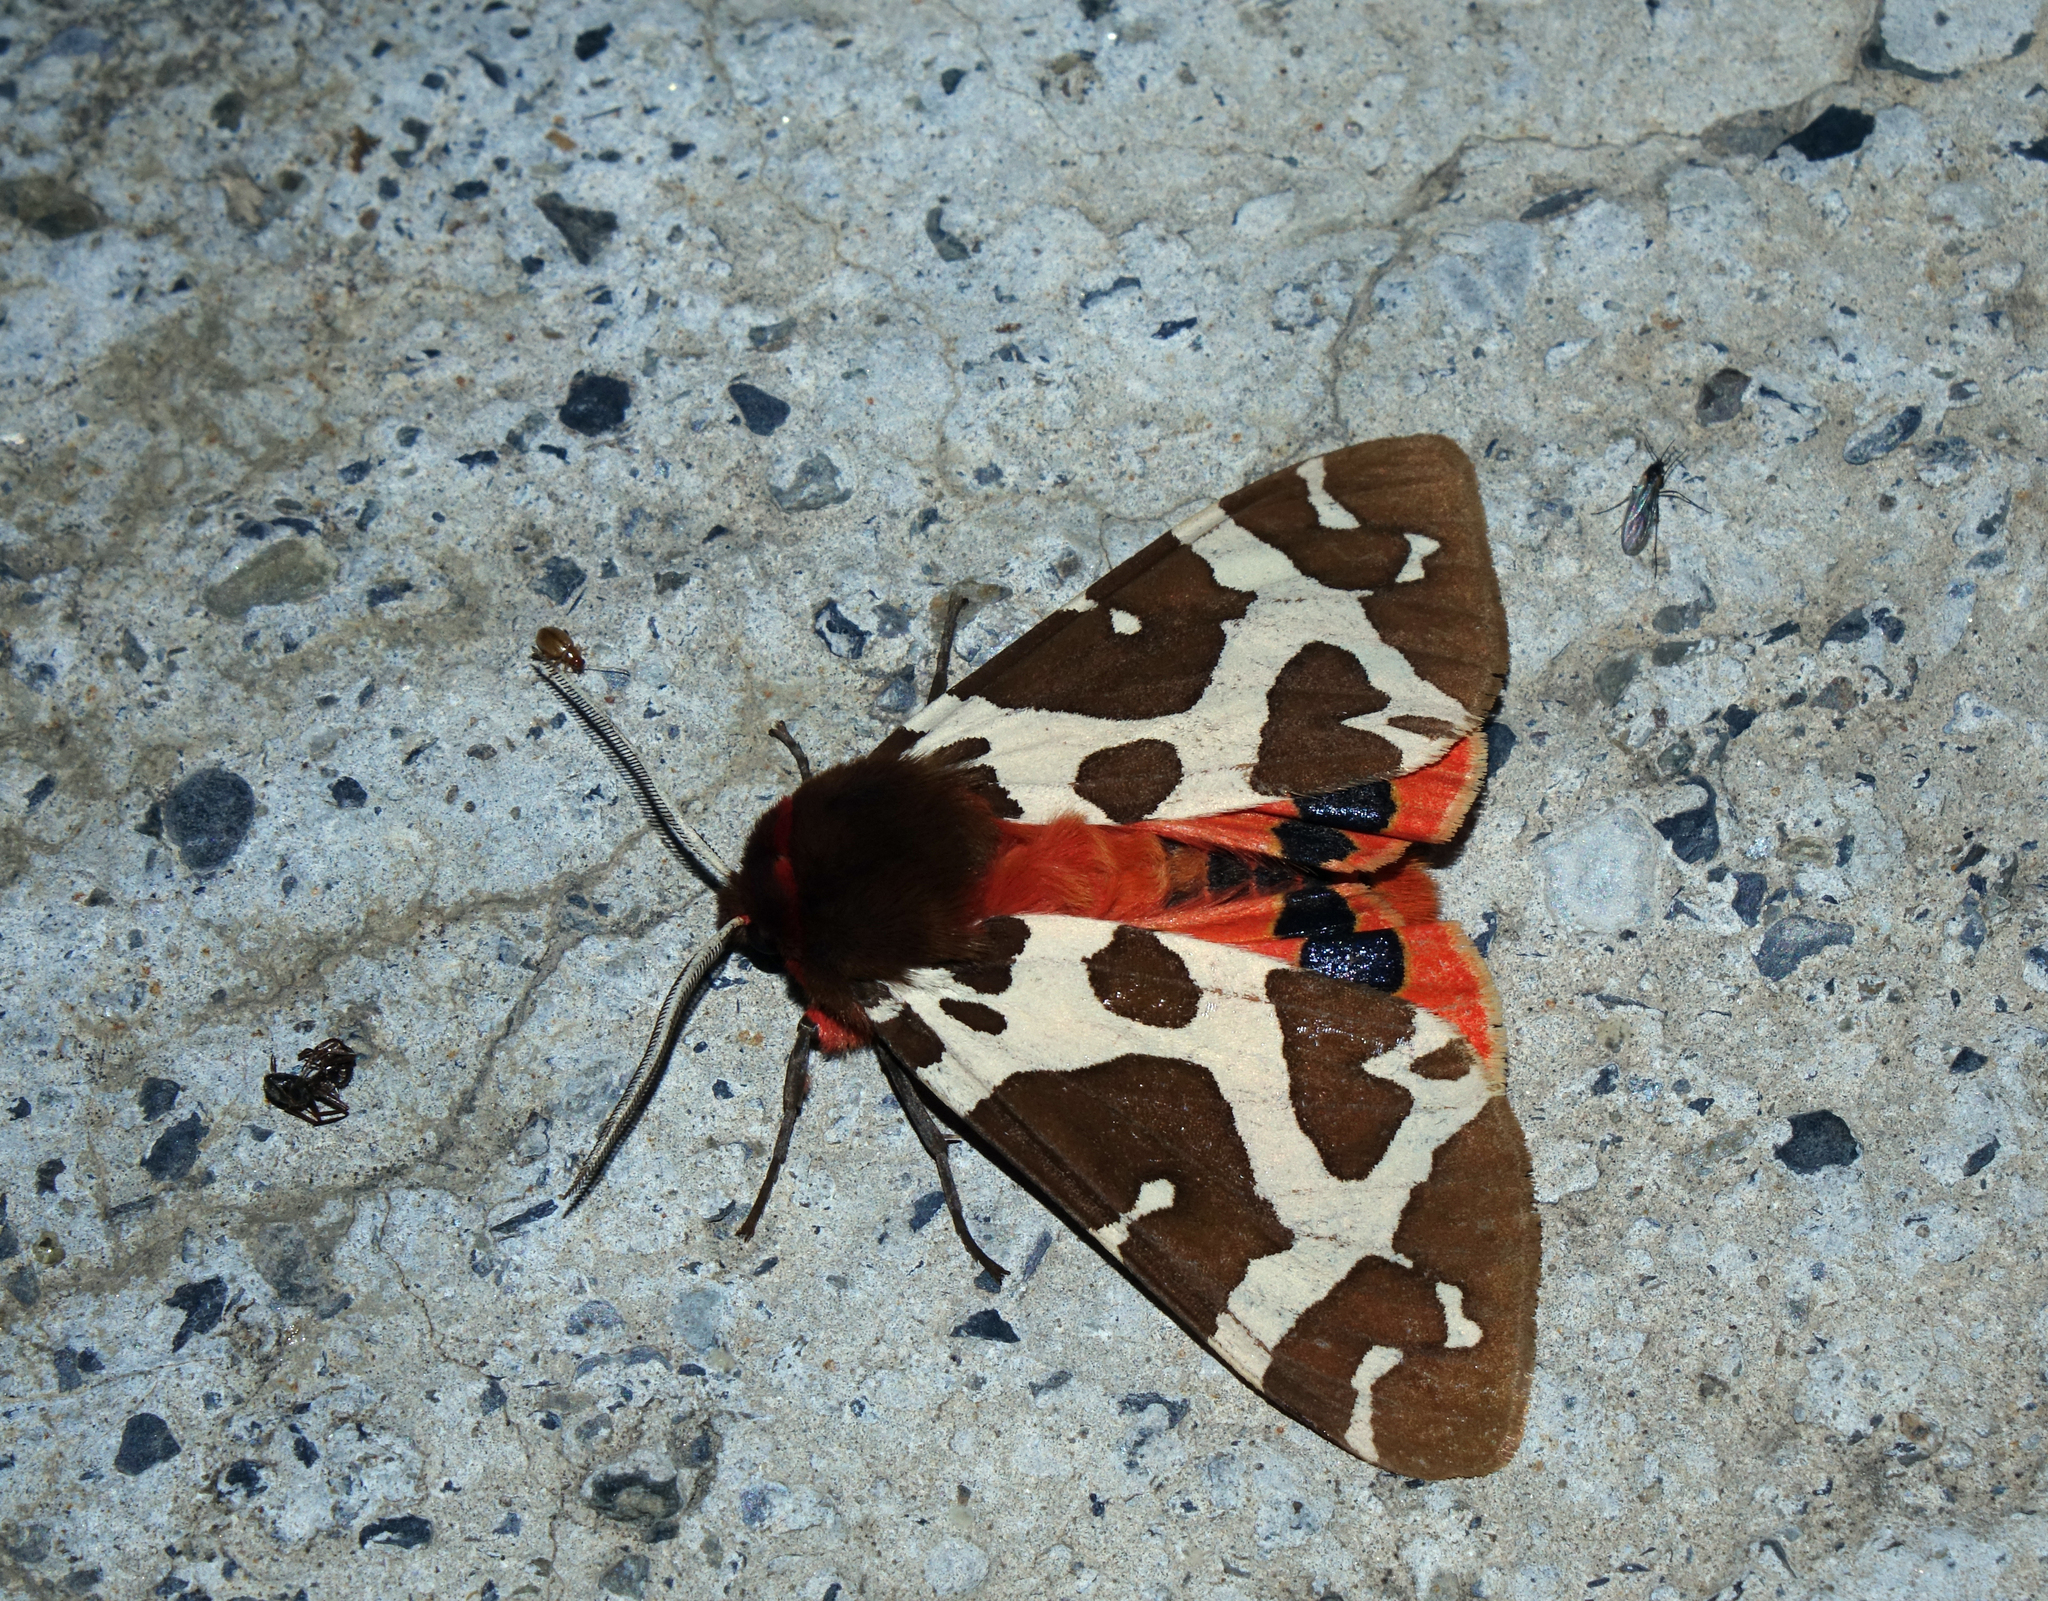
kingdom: Animalia
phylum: Arthropoda
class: Insecta
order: Lepidoptera
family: Erebidae
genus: Arctia
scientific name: Arctia caja
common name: Garden tiger
